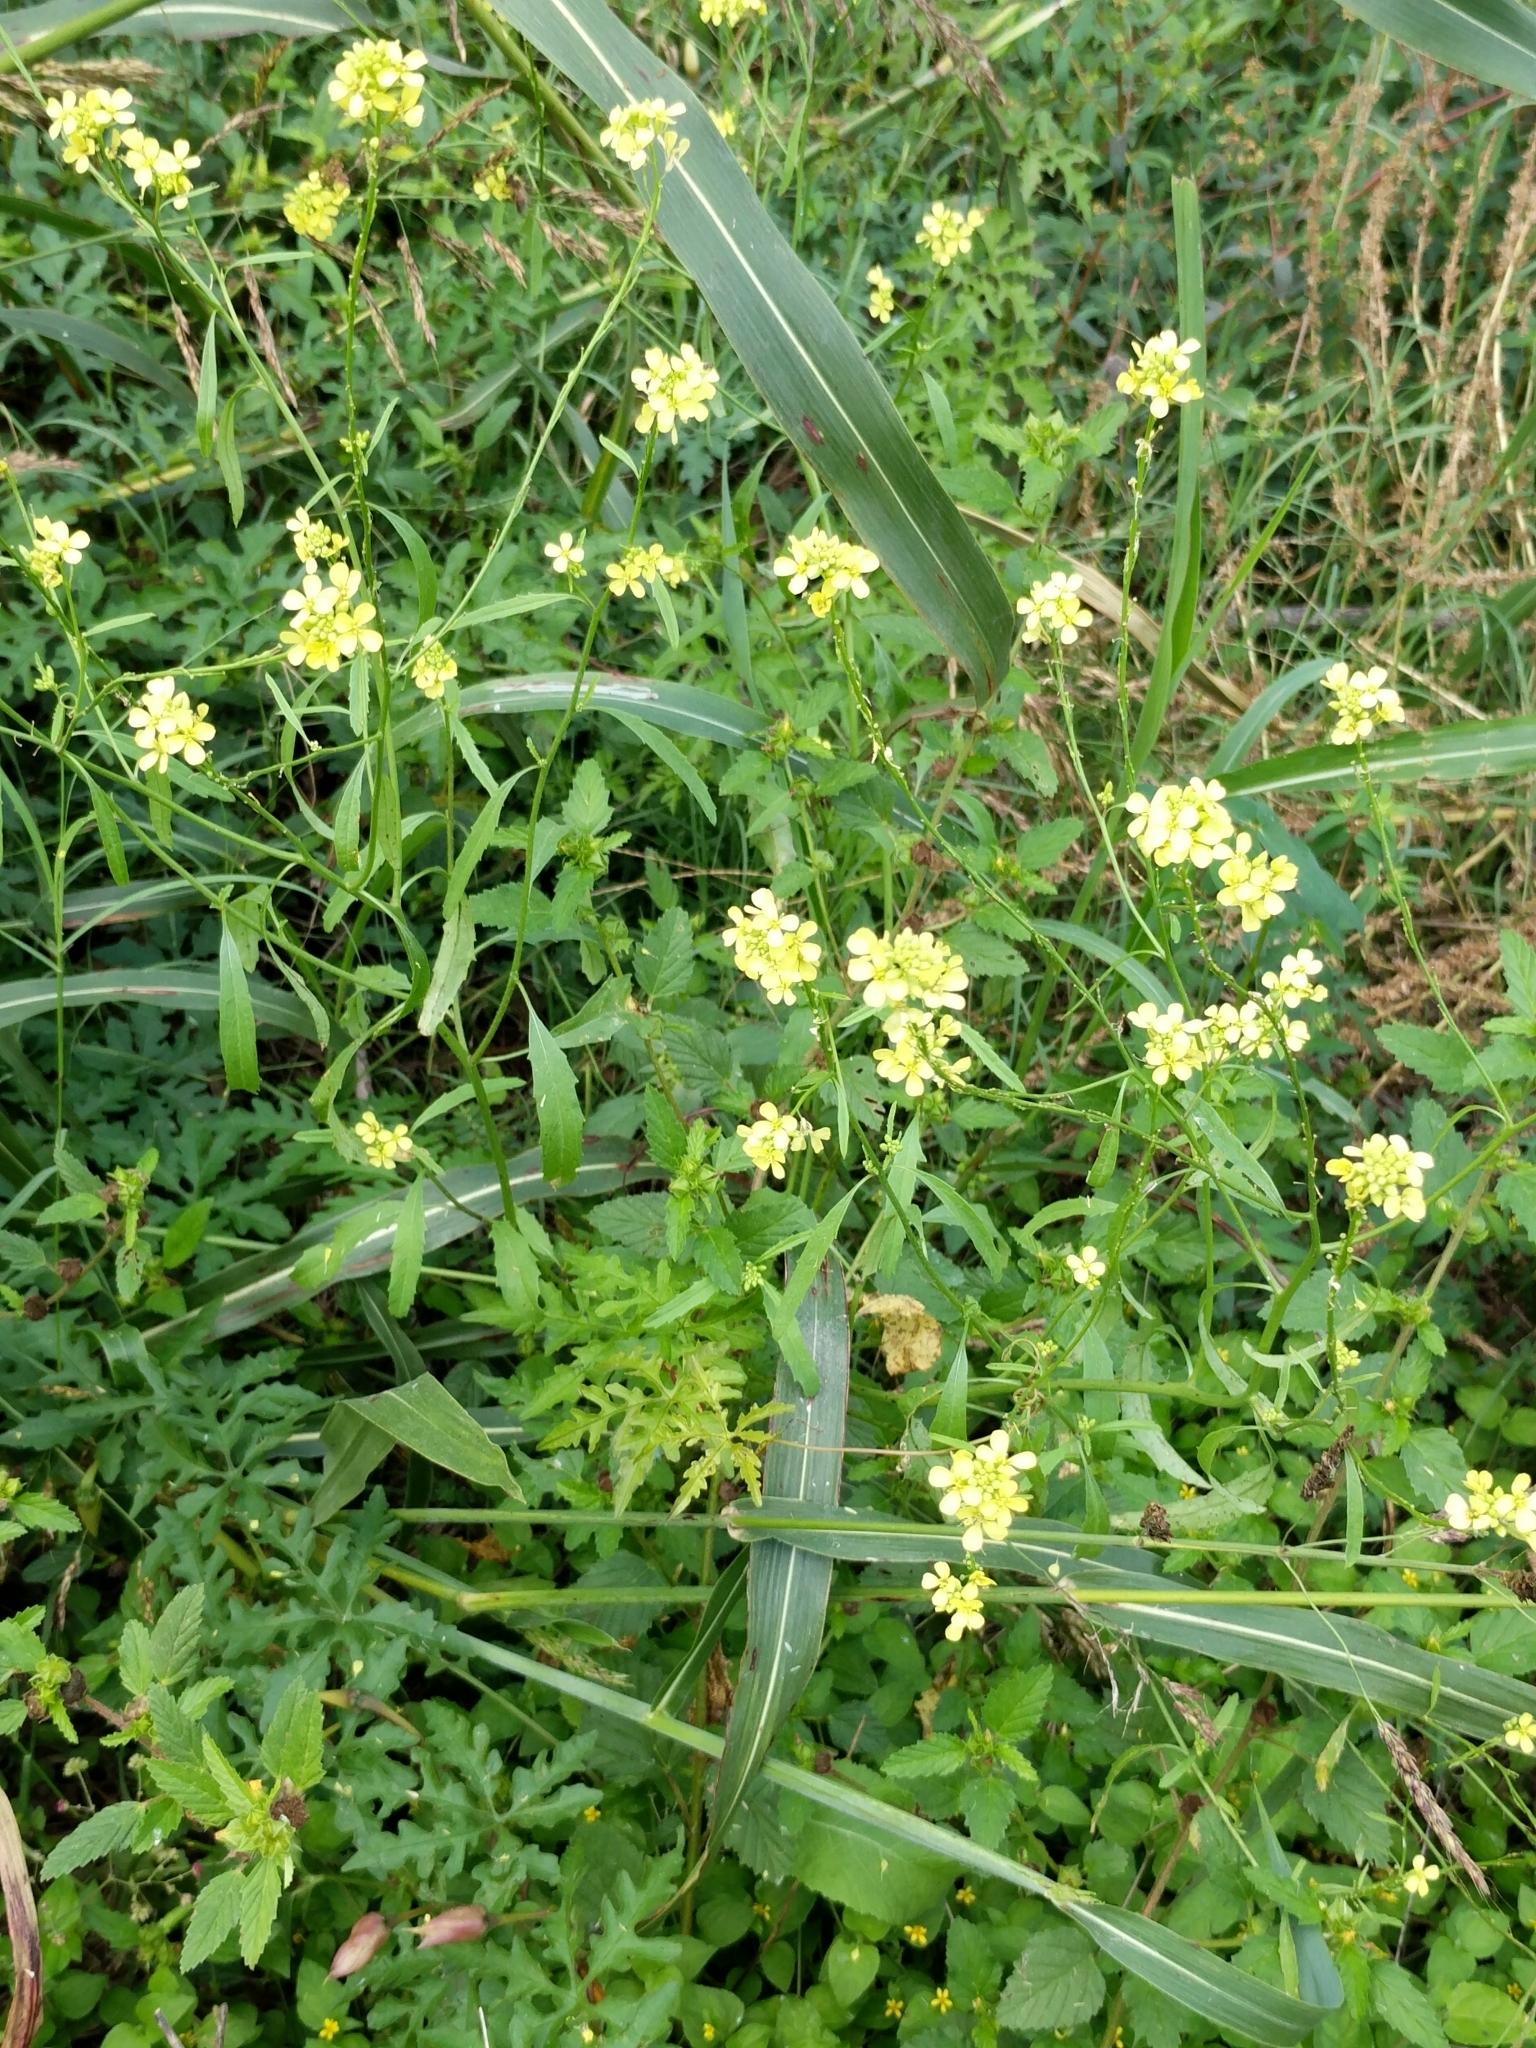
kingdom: Plantae
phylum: Tracheophyta
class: Magnoliopsida
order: Brassicales
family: Brassicaceae
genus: Rapistrum
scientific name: Rapistrum rugosum
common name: Annual bastardcabbage
